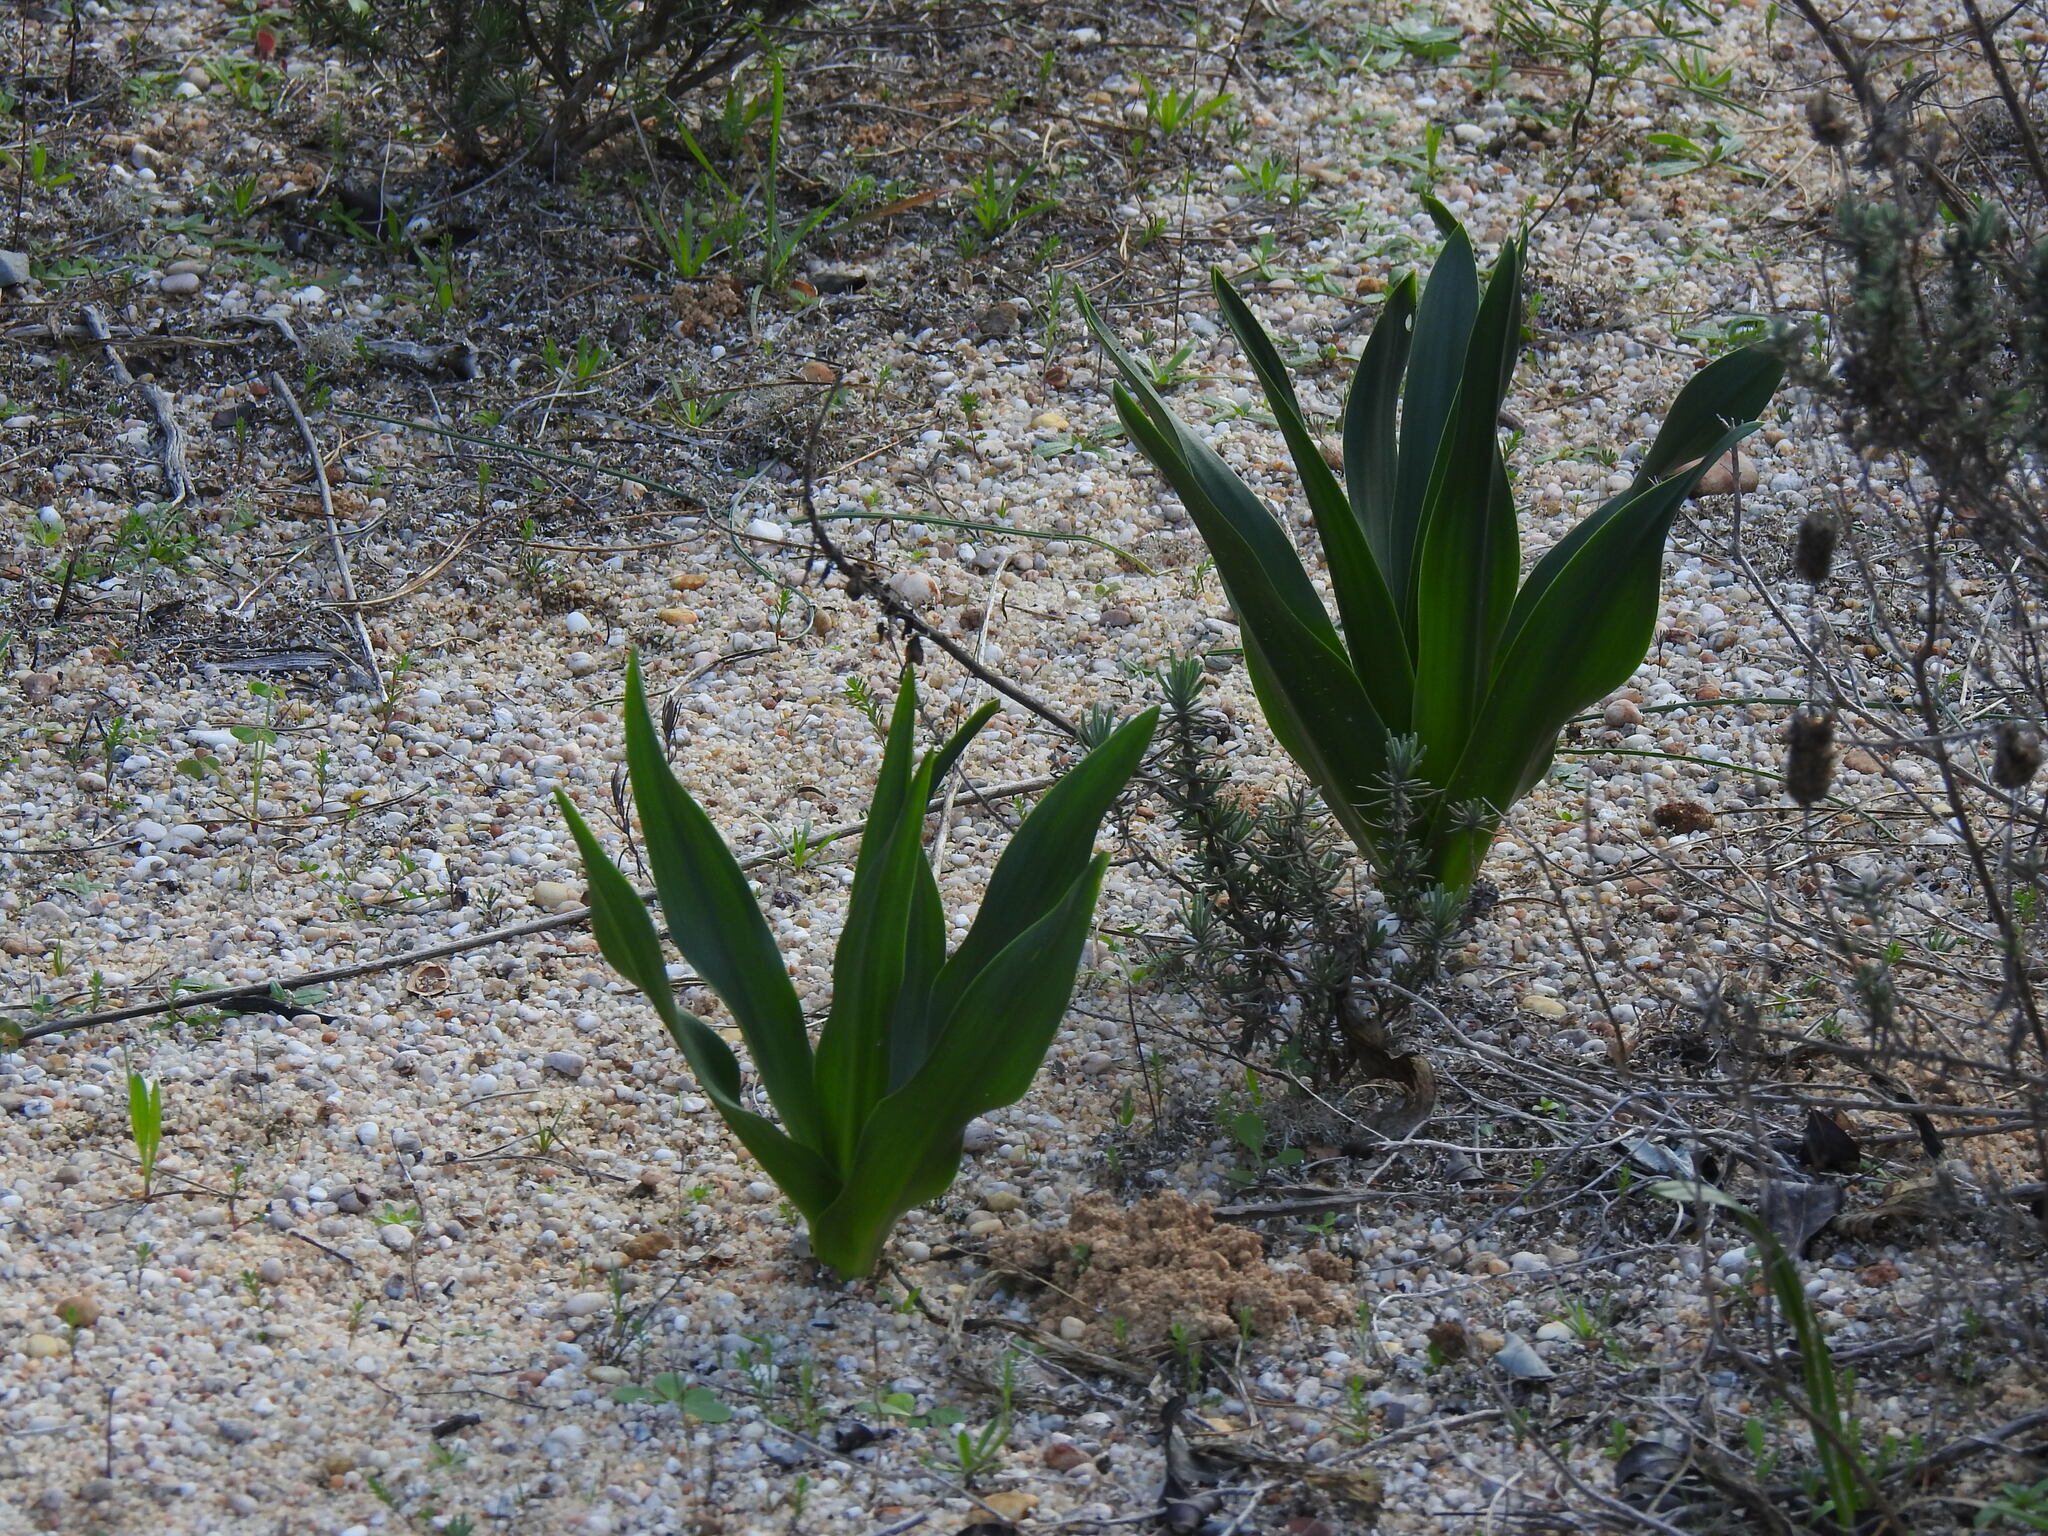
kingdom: Plantae
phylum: Tracheophyta
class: Liliopsida
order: Asparagales
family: Asparagaceae
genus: Drimia
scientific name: Drimia maritima
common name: Maritime squill
